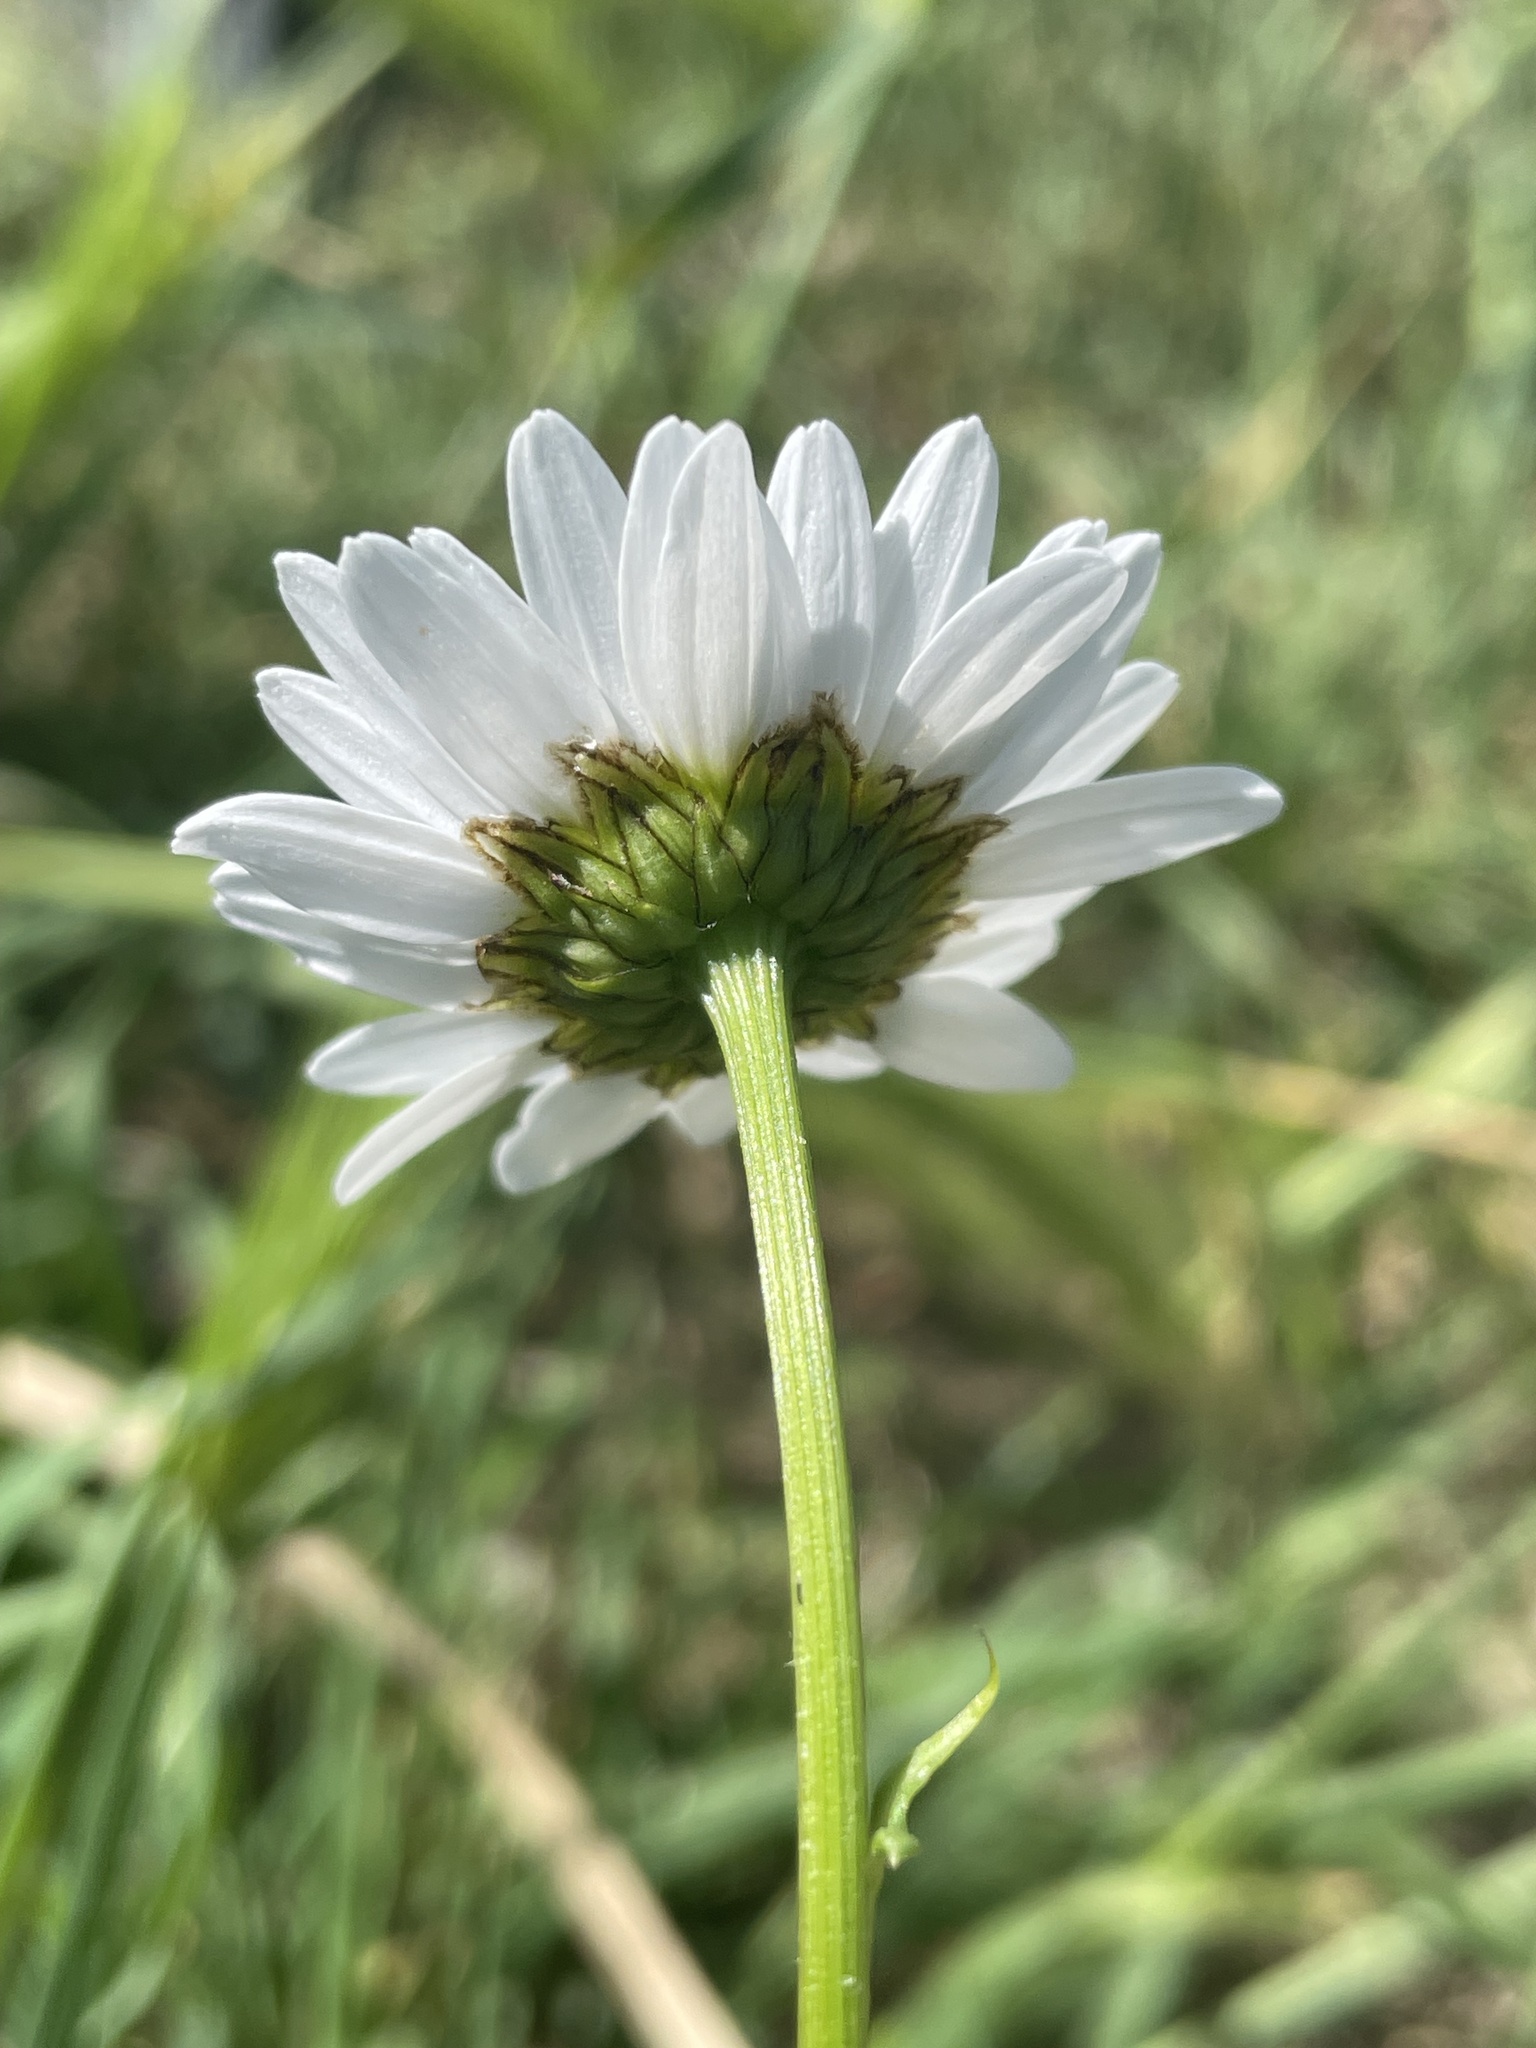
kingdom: Plantae
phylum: Tracheophyta
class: Magnoliopsida
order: Asterales
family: Asteraceae
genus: Leucanthemum
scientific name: Leucanthemum vulgare
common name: Oxeye daisy
